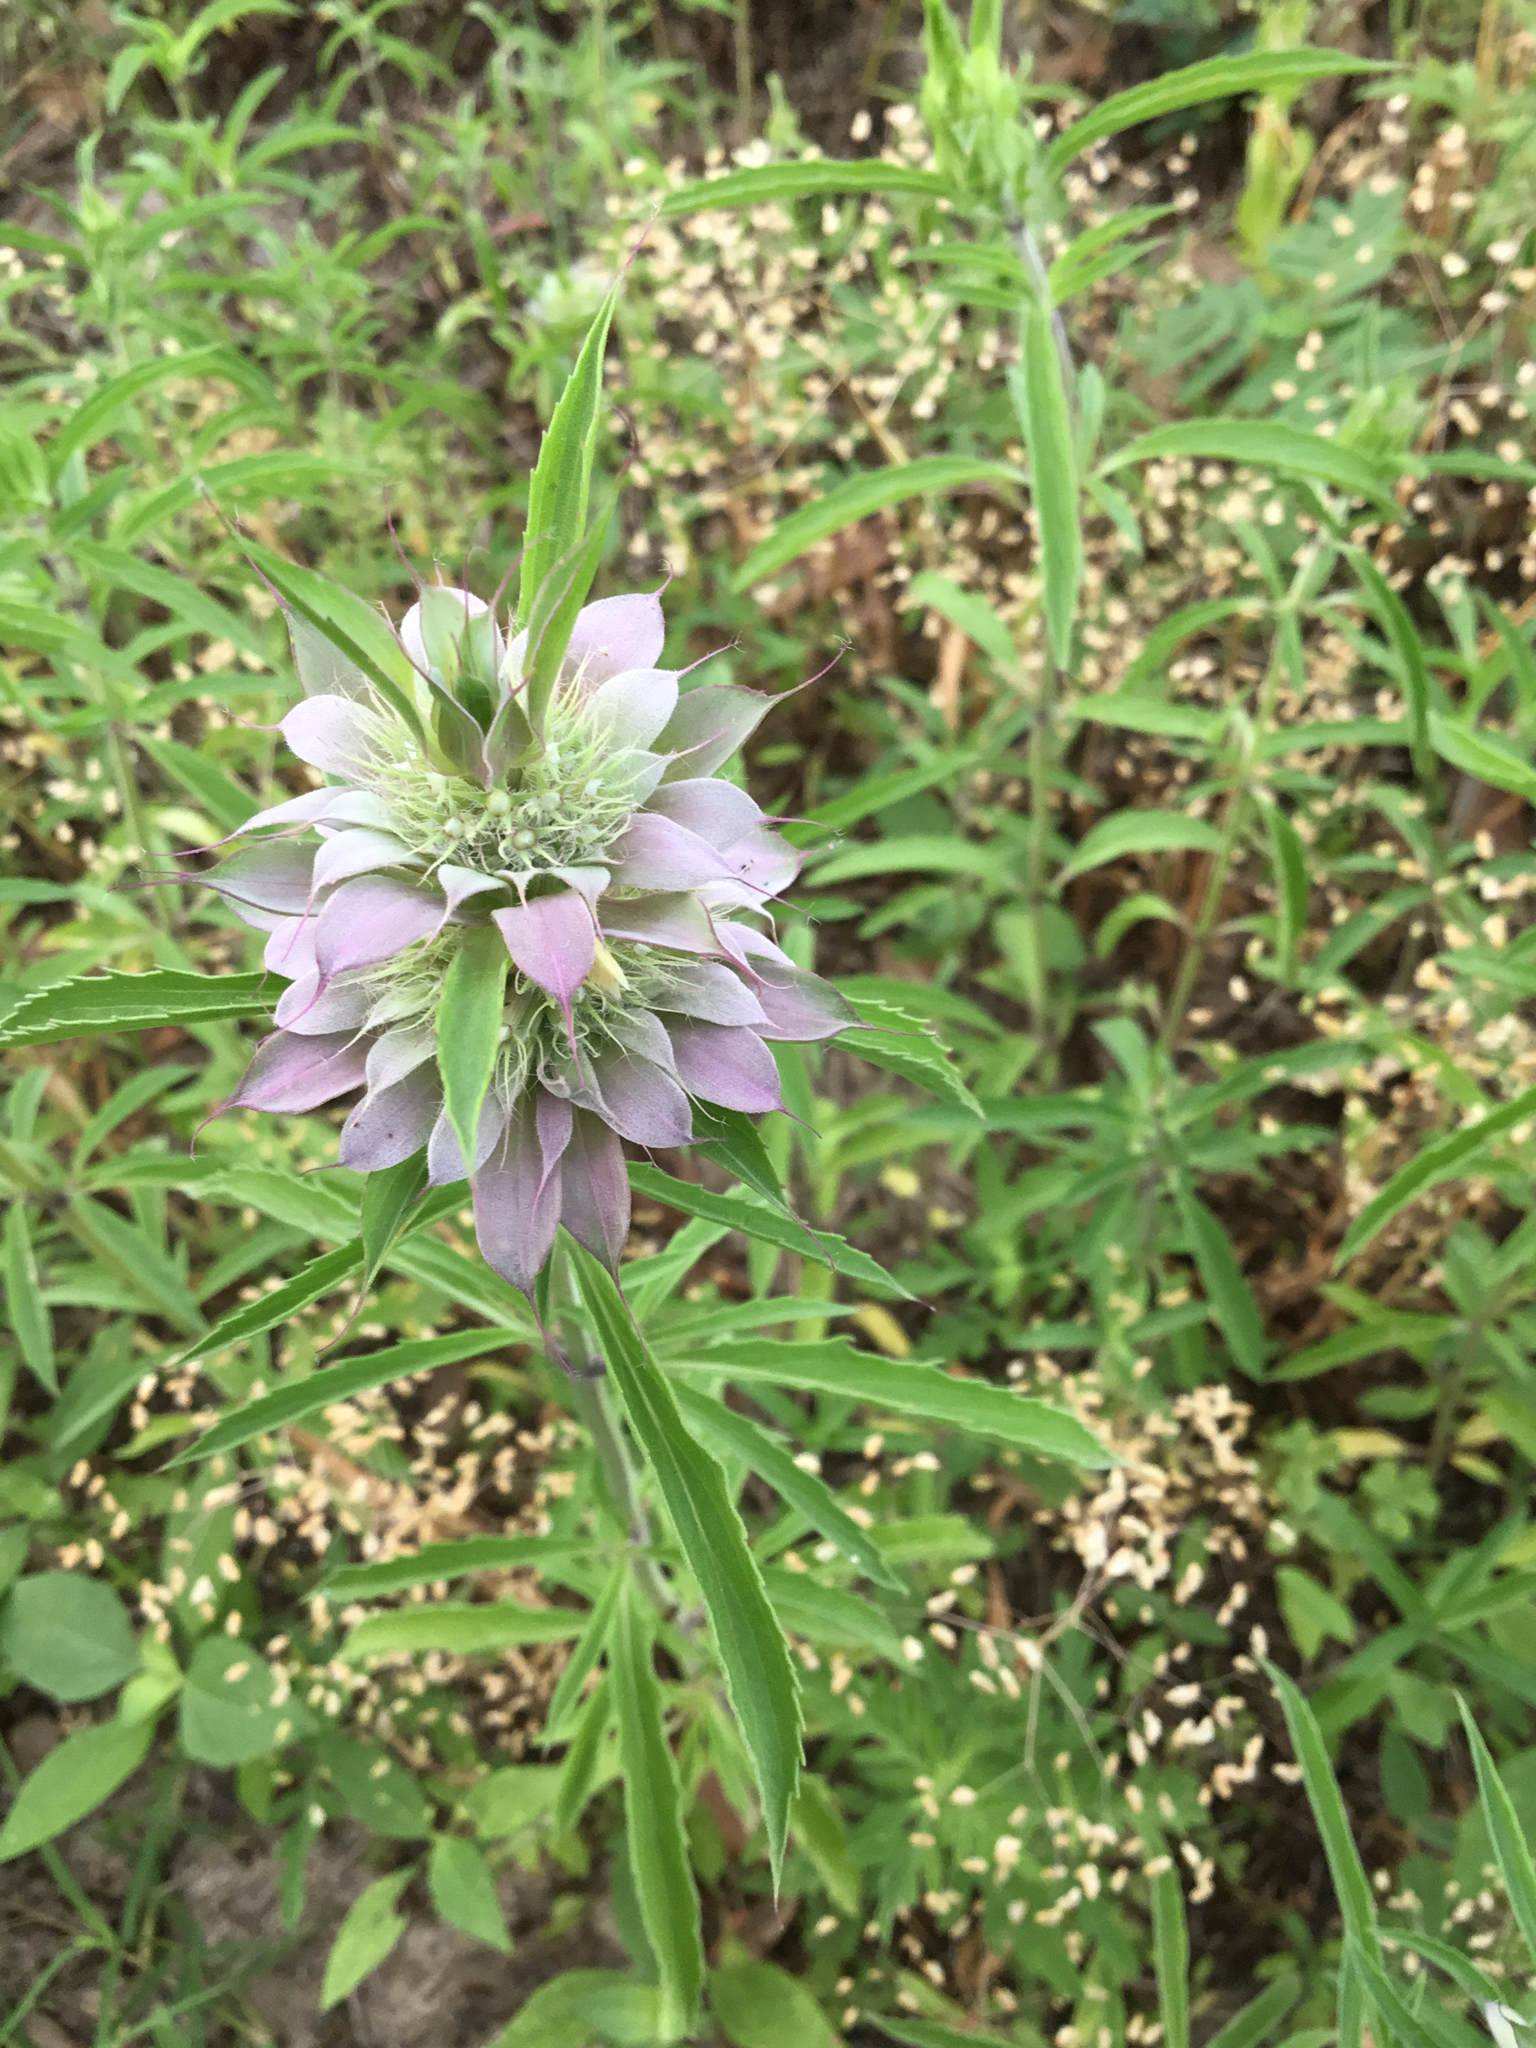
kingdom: Plantae
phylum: Tracheophyta
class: Magnoliopsida
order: Lamiales
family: Lamiaceae
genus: Monarda
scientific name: Monarda citriodora
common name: Lemon beebalm
